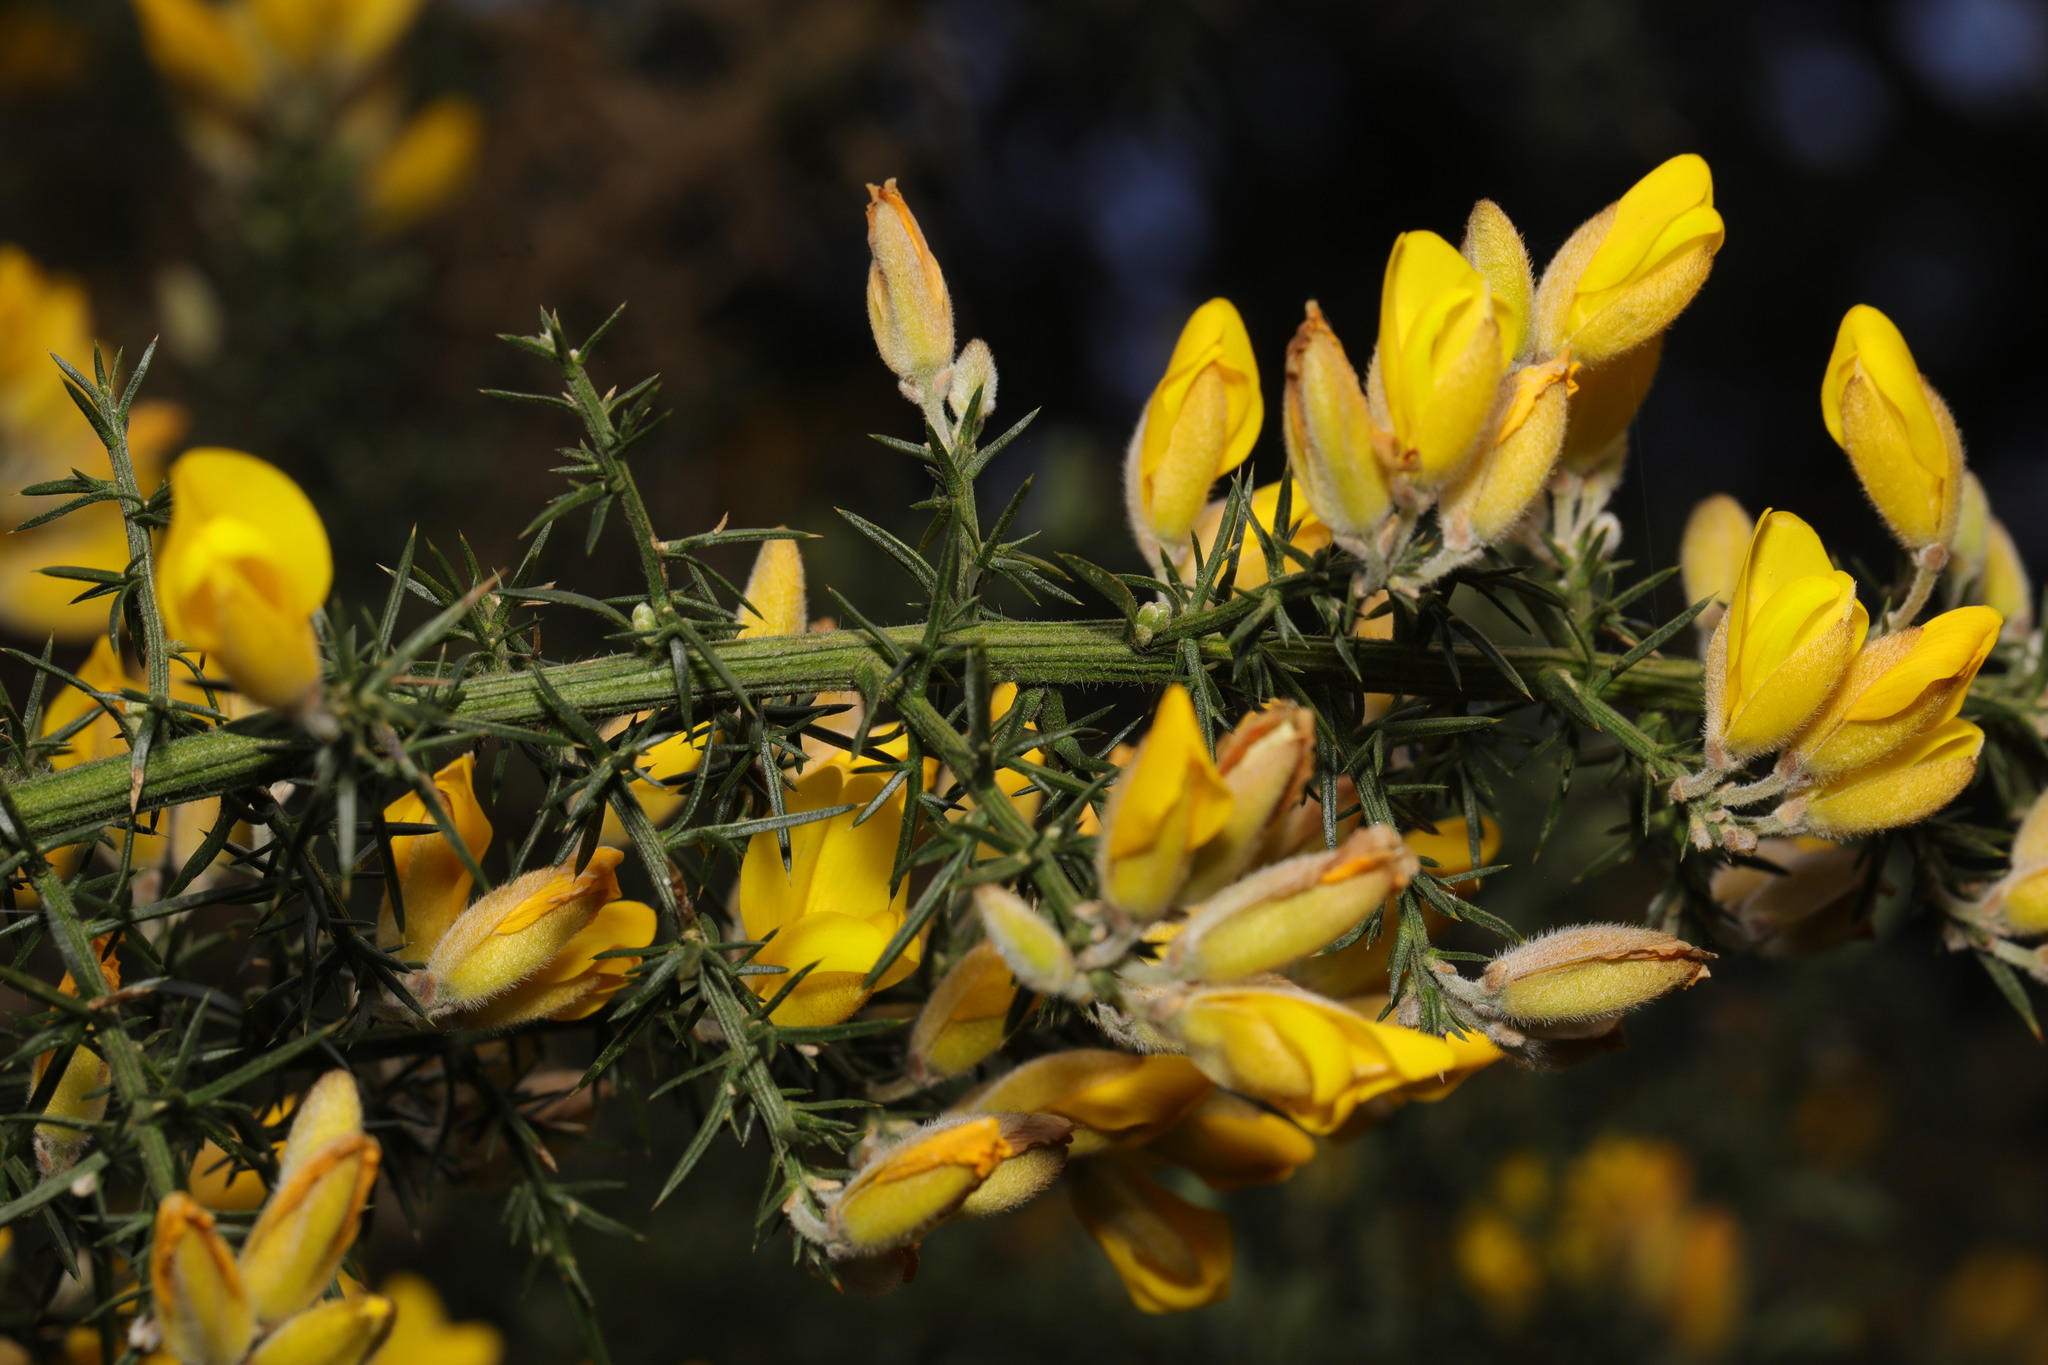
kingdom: Plantae
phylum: Tracheophyta
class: Magnoliopsida
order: Fabales
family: Fabaceae
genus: Ulex
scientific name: Ulex europaeus
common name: Common gorse
